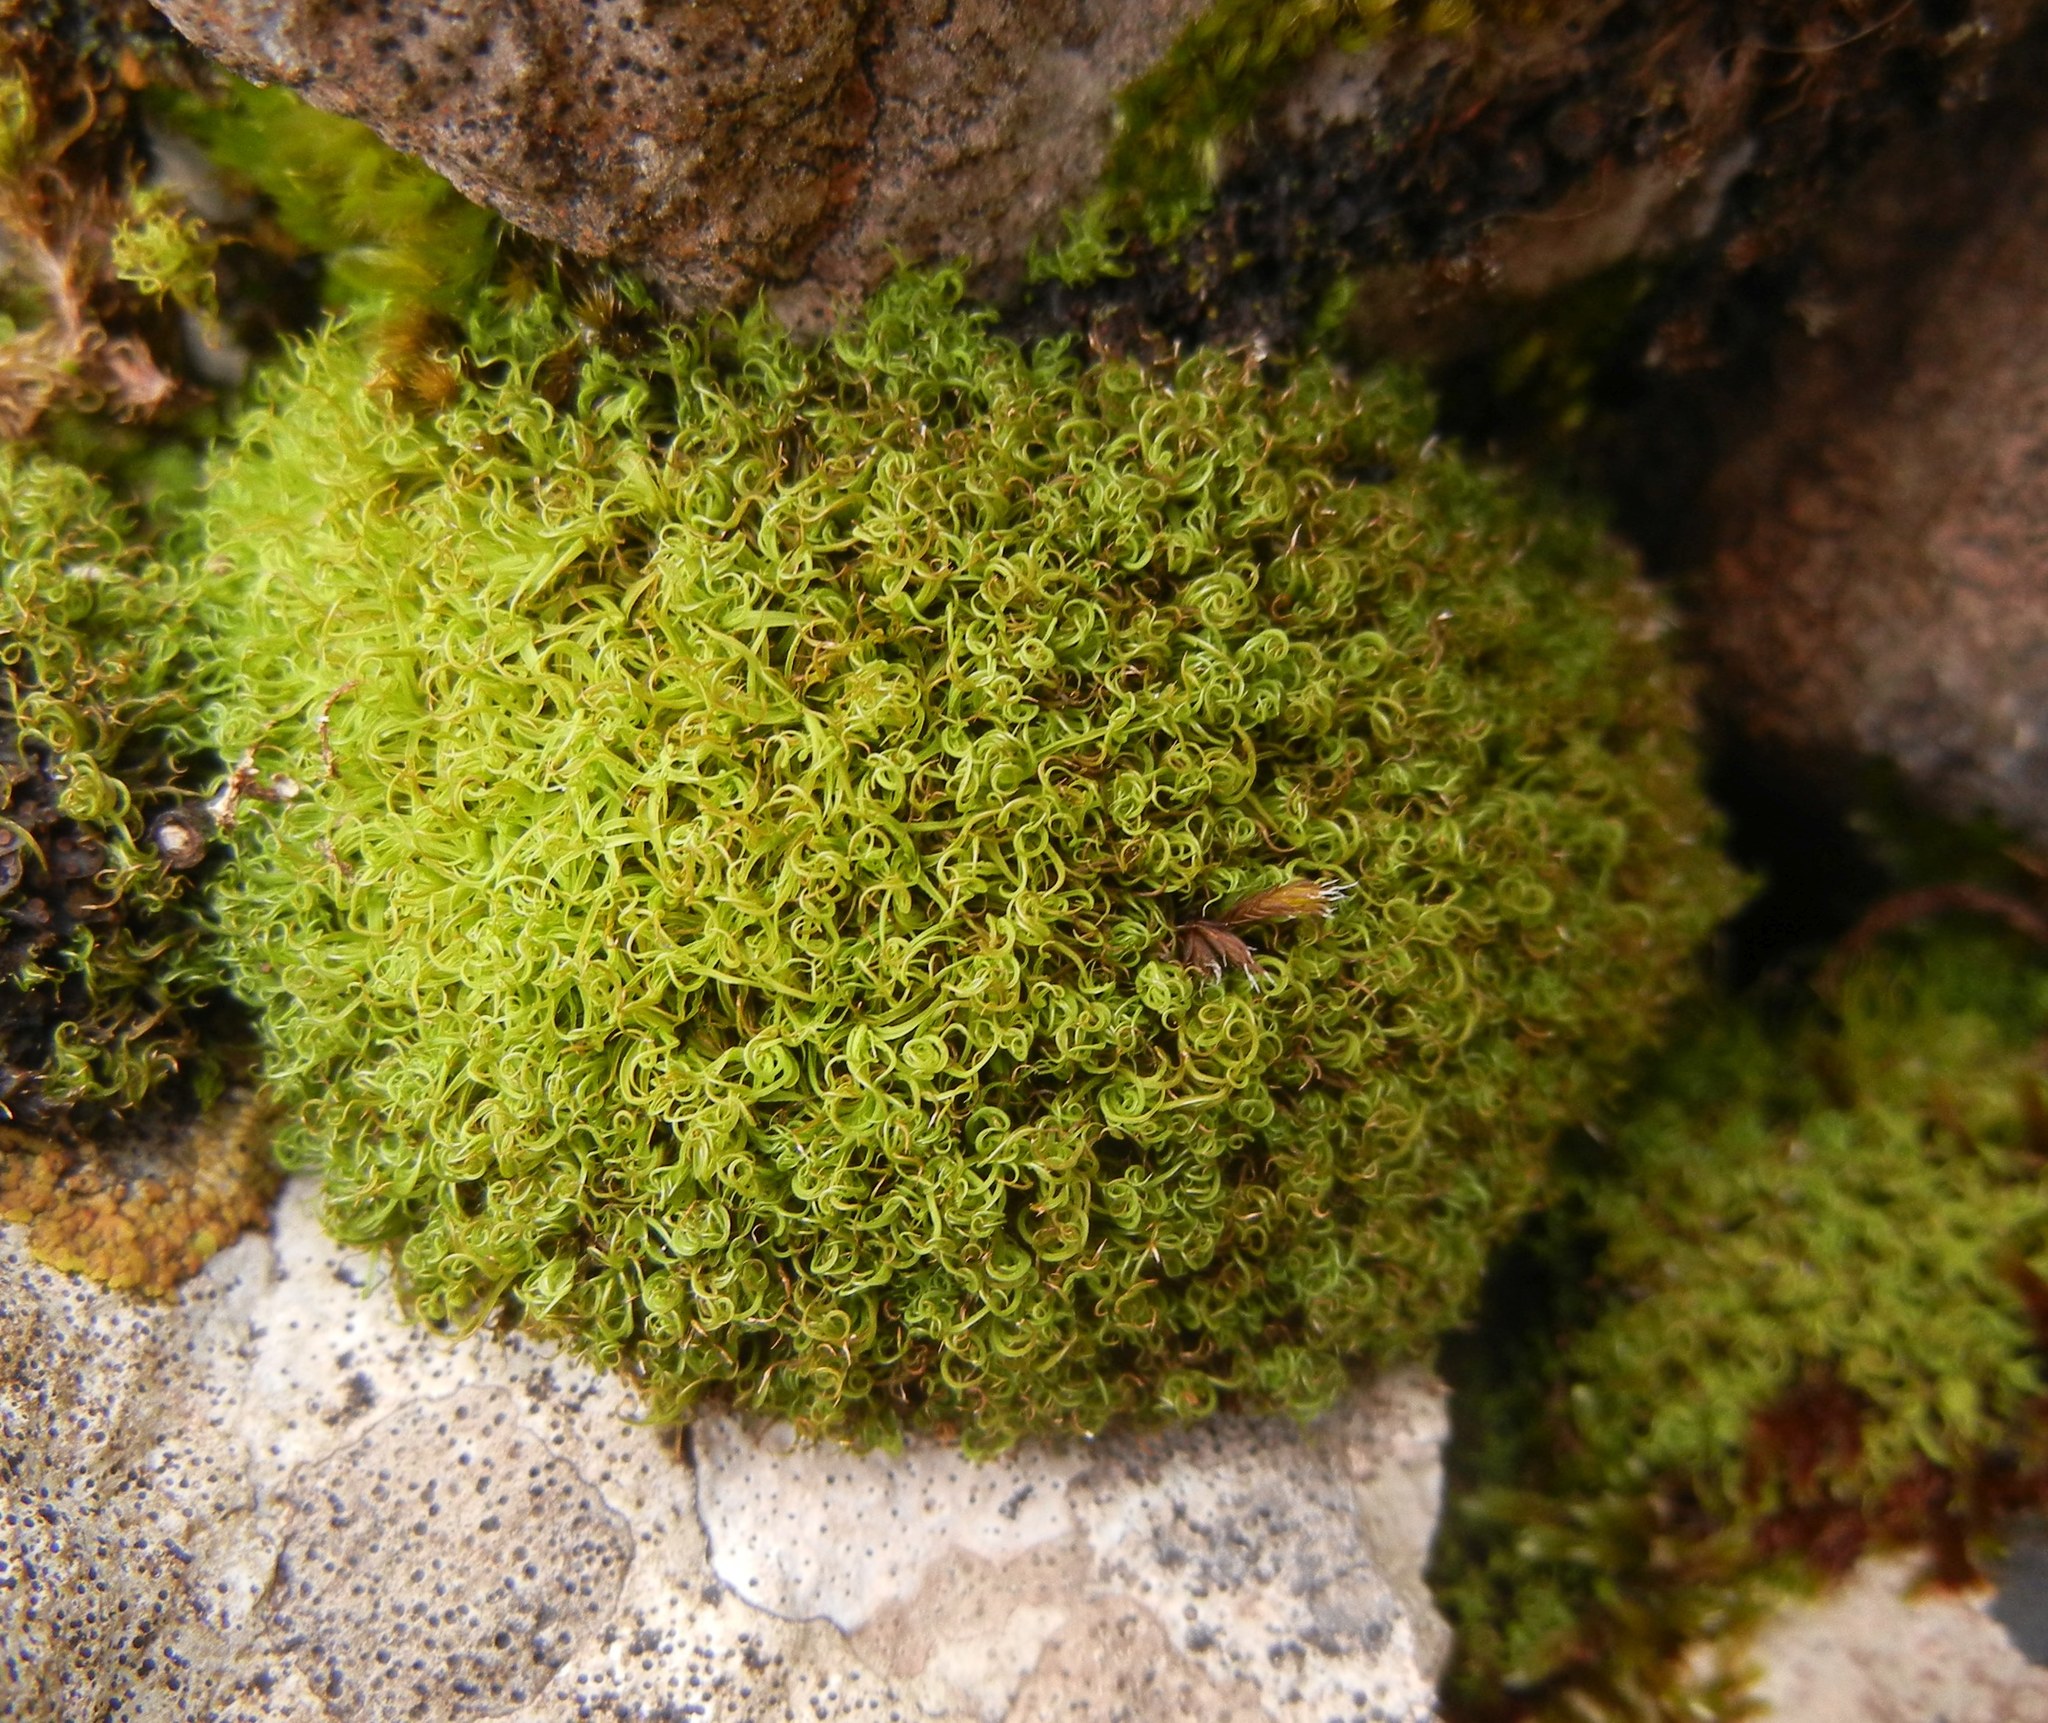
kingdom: Plantae
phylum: Bryophyta
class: Bryopsida
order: Pottiales
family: Pottiaceae
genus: Vinealobryum
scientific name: Vinealobryum insulanum
